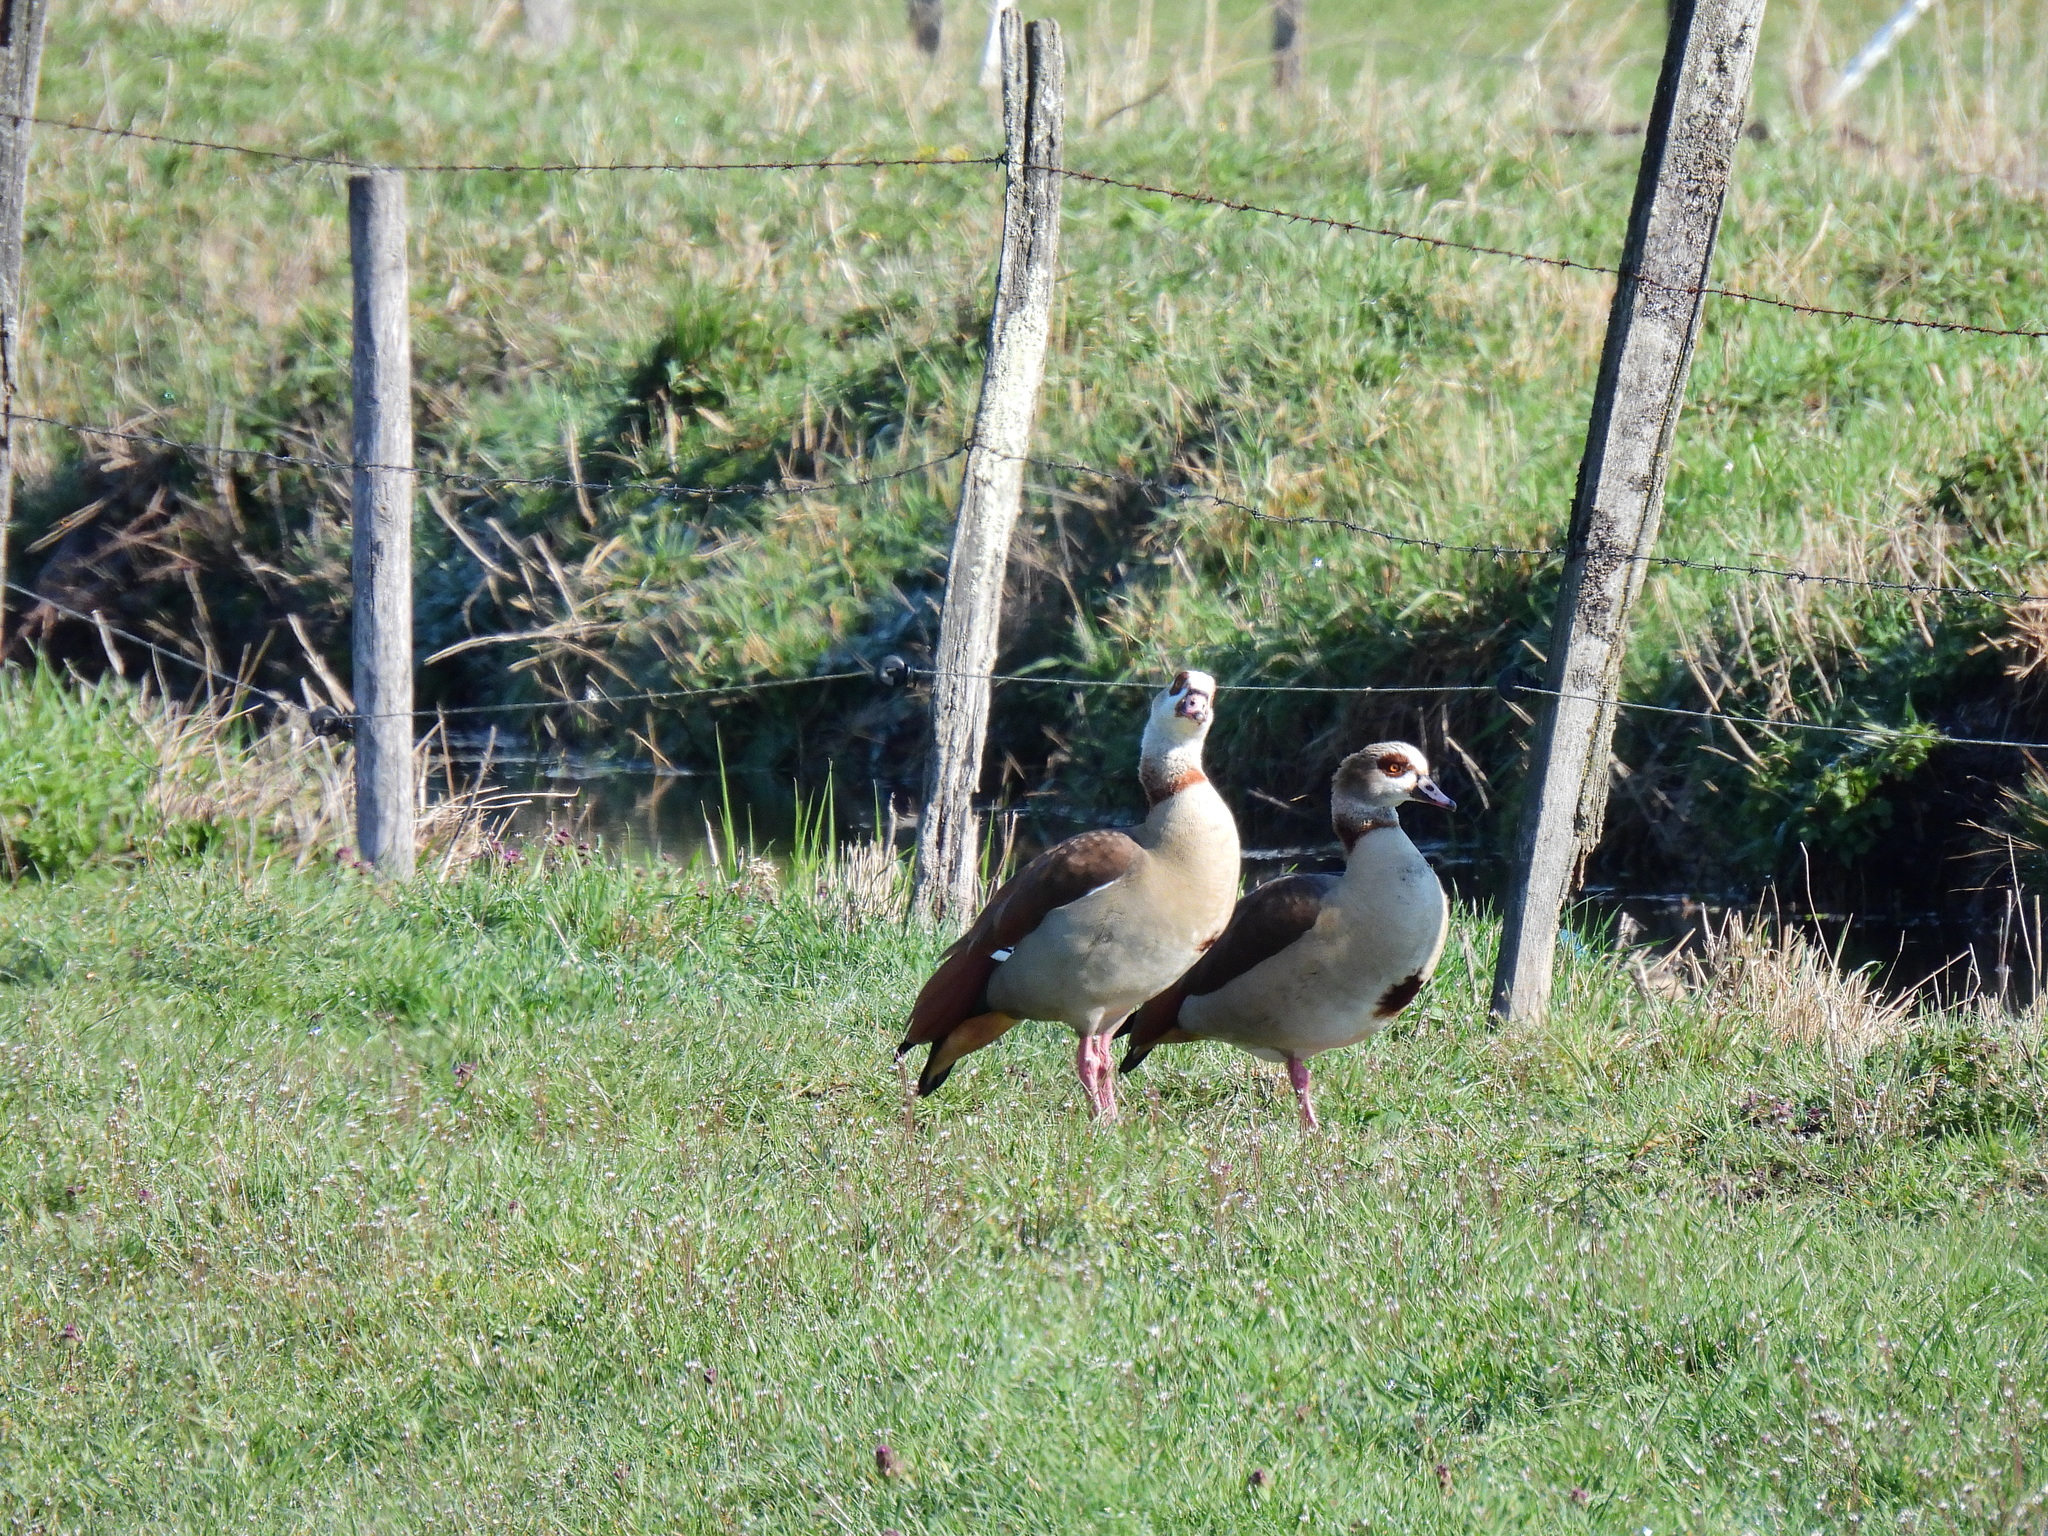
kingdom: Animalia
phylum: Chordata
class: Aves
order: Anseriformes
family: Anatidae
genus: Alopochen
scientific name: Alopochen aegyptiaca
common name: Egyptian goose
